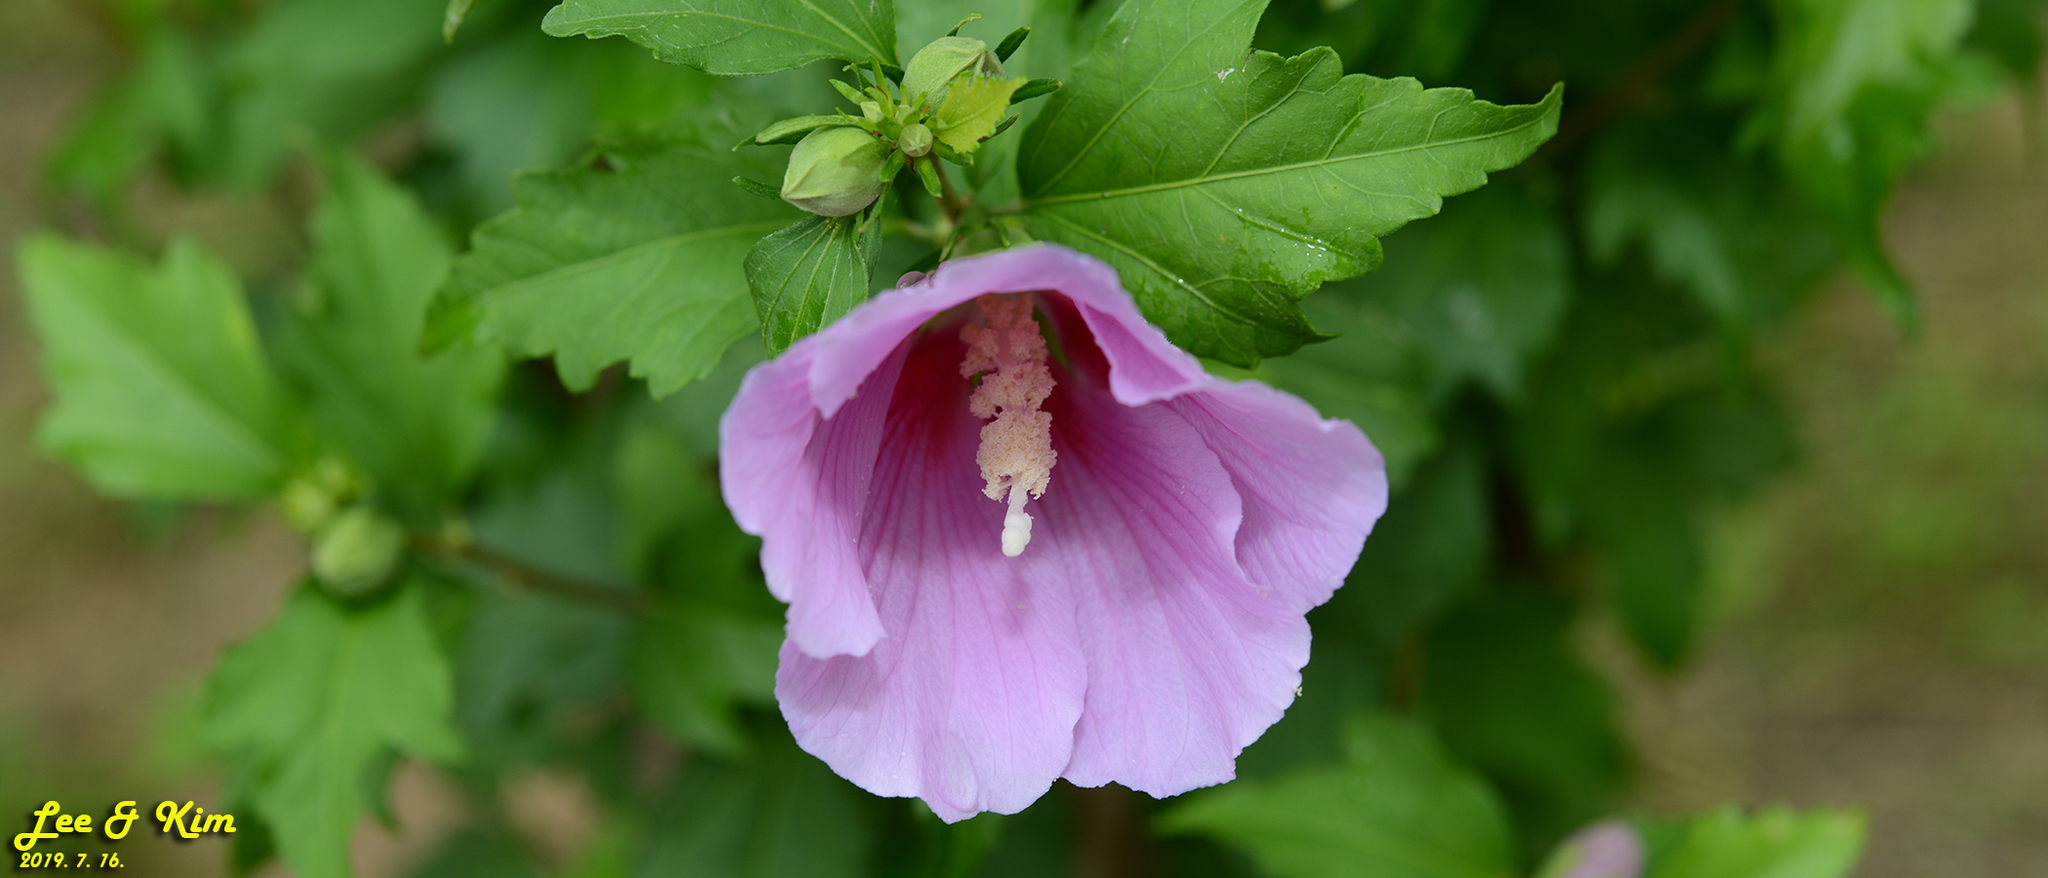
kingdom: Plantae
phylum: Tracheophyta
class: Magnoliopsida
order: Malvales
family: Malvaceae
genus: Hibiscus
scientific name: Hibiscus syriacus
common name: Syrian ketmia
